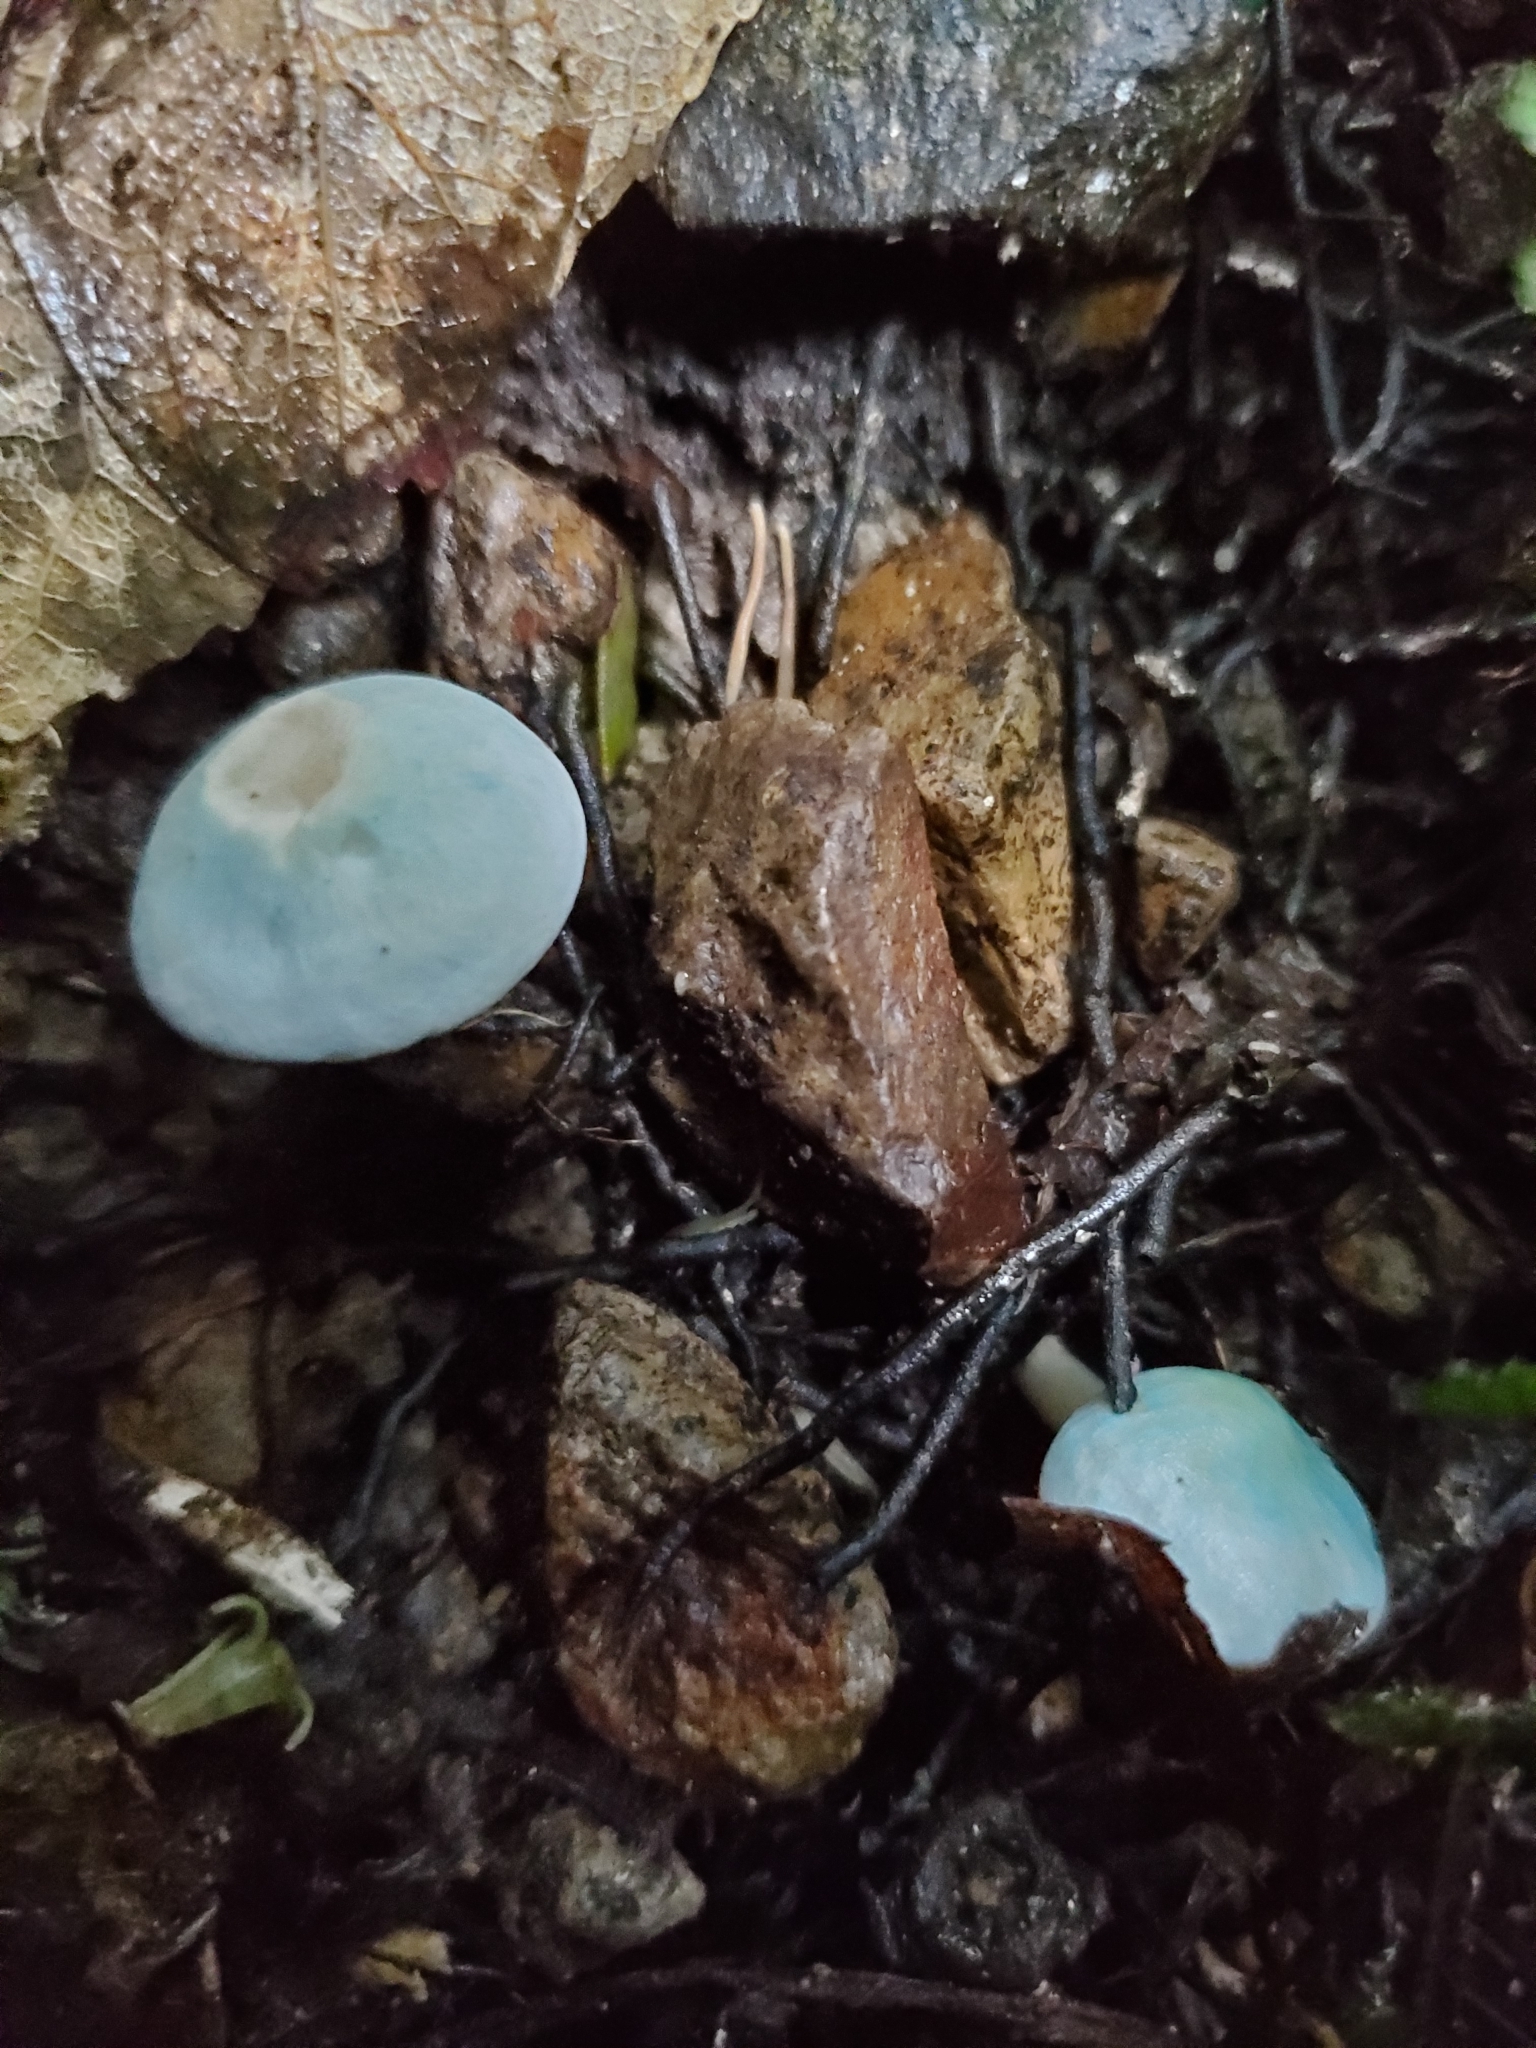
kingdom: Fungi
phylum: Basidiomycota
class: Agaricomycetes
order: Agaricales
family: Hygrophoraceae
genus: Cuphophyllus
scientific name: Cuphophyllus
